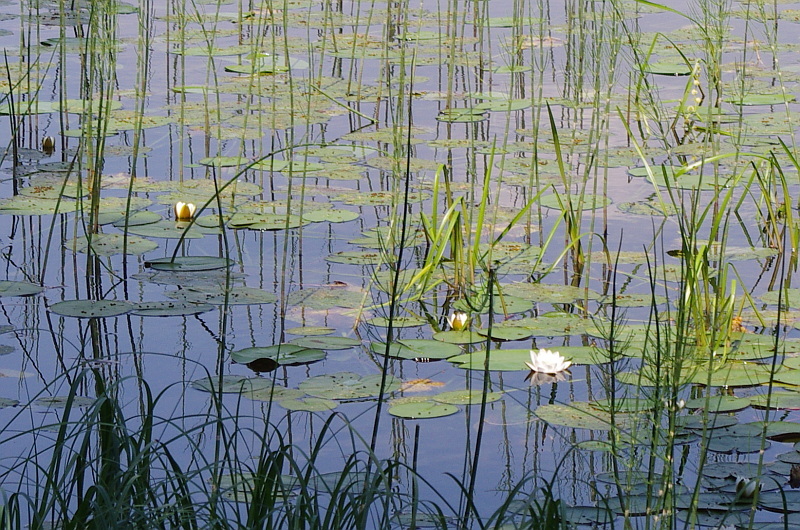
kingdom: Plantae
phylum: Tracheophyta
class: Magnoliopsida
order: Nymphaeales
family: Nymphaeaceae
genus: Nymphaea
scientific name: Nymphaea candida
